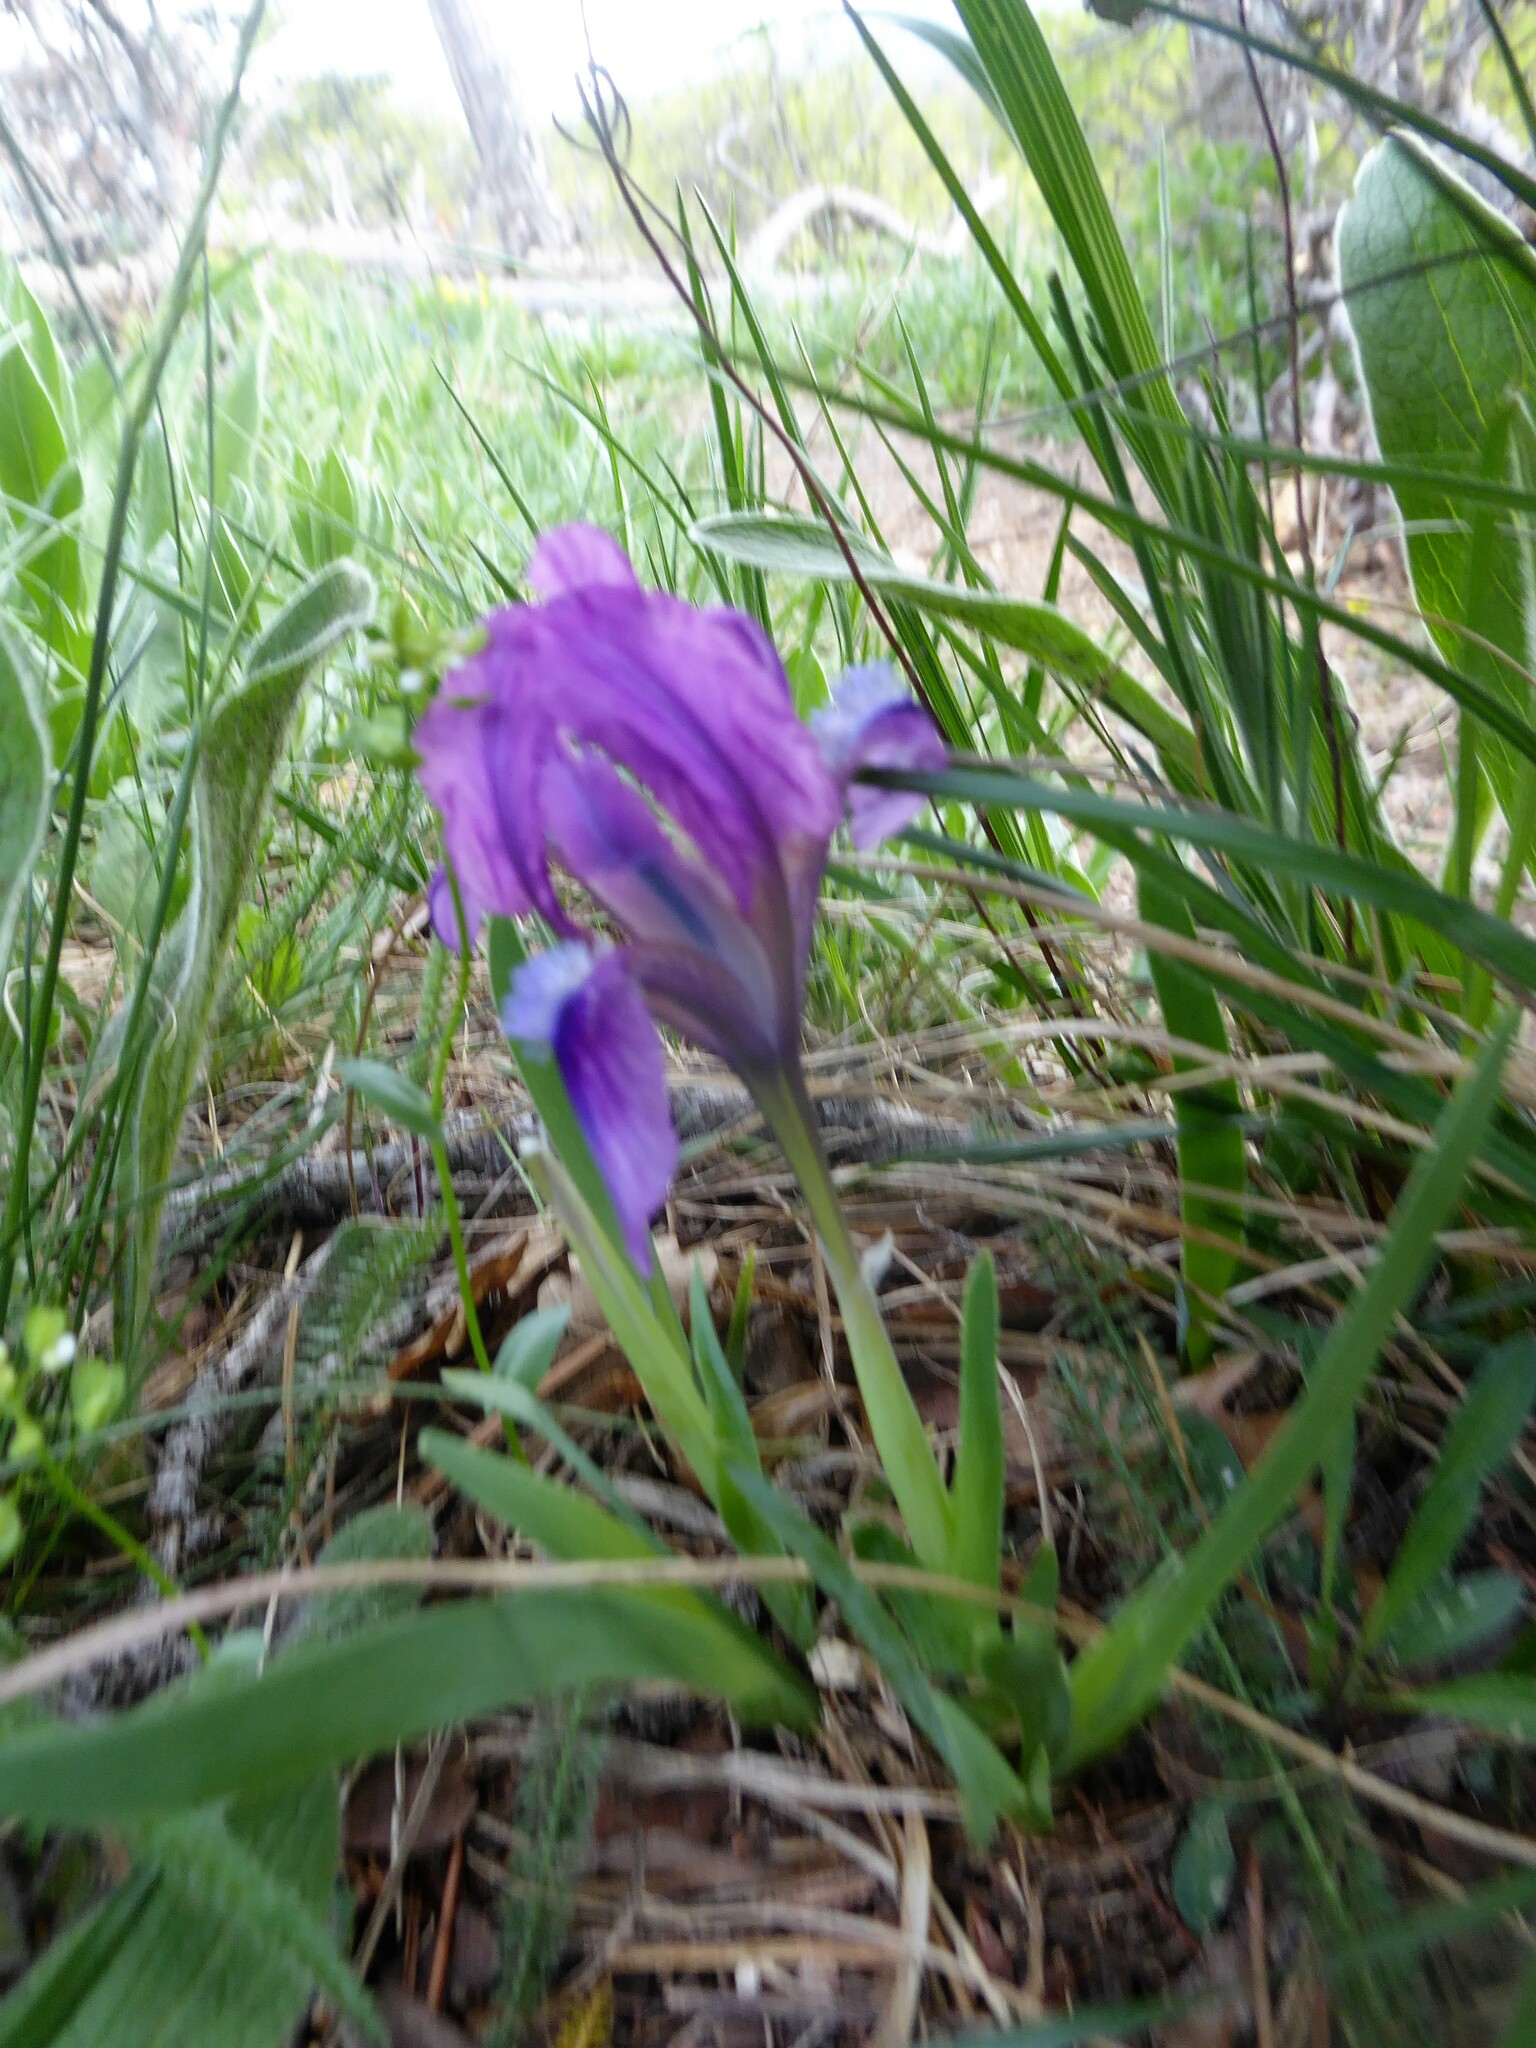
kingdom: Plantae
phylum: Tracheophyta
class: Liliopsida
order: Asparagales
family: Iridaceae
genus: Iris
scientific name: Iris pumila
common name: Dwarf iris
